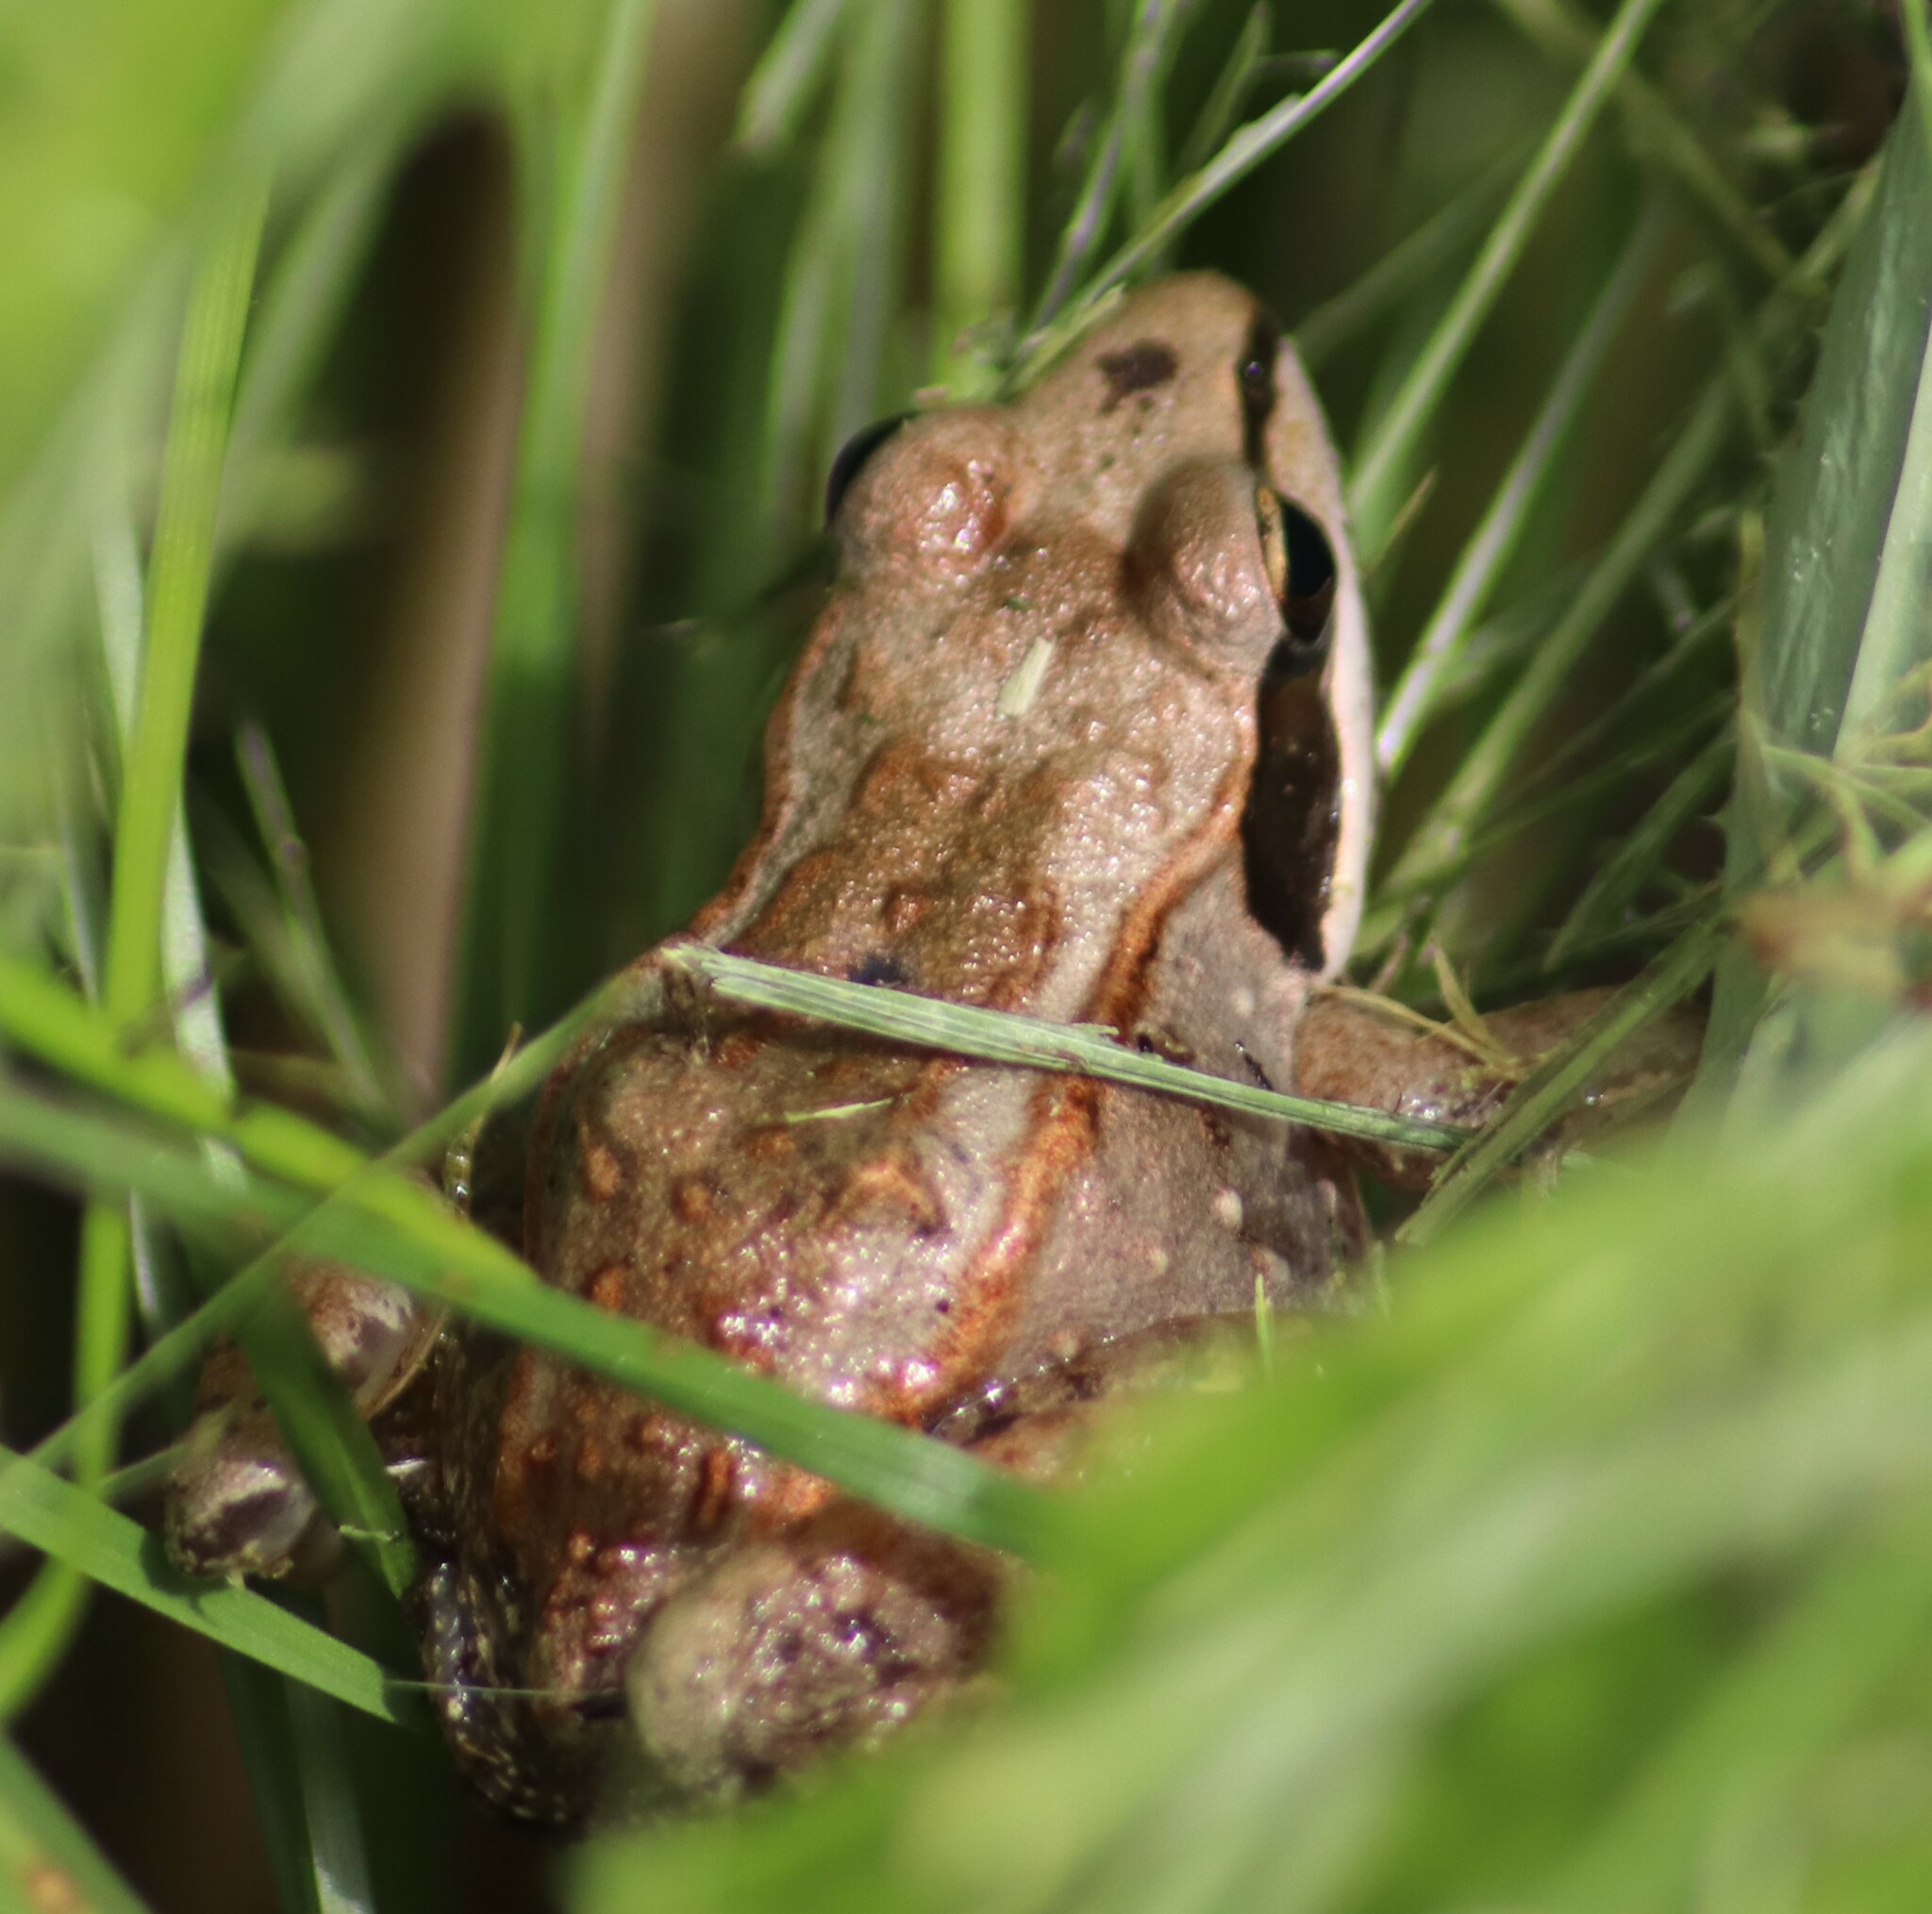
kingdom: Animalia
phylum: Chordata
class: Amphibia
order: Anura
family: Ranidae
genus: Lithobates
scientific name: Lithobates sylvaticus
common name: Wood frog
